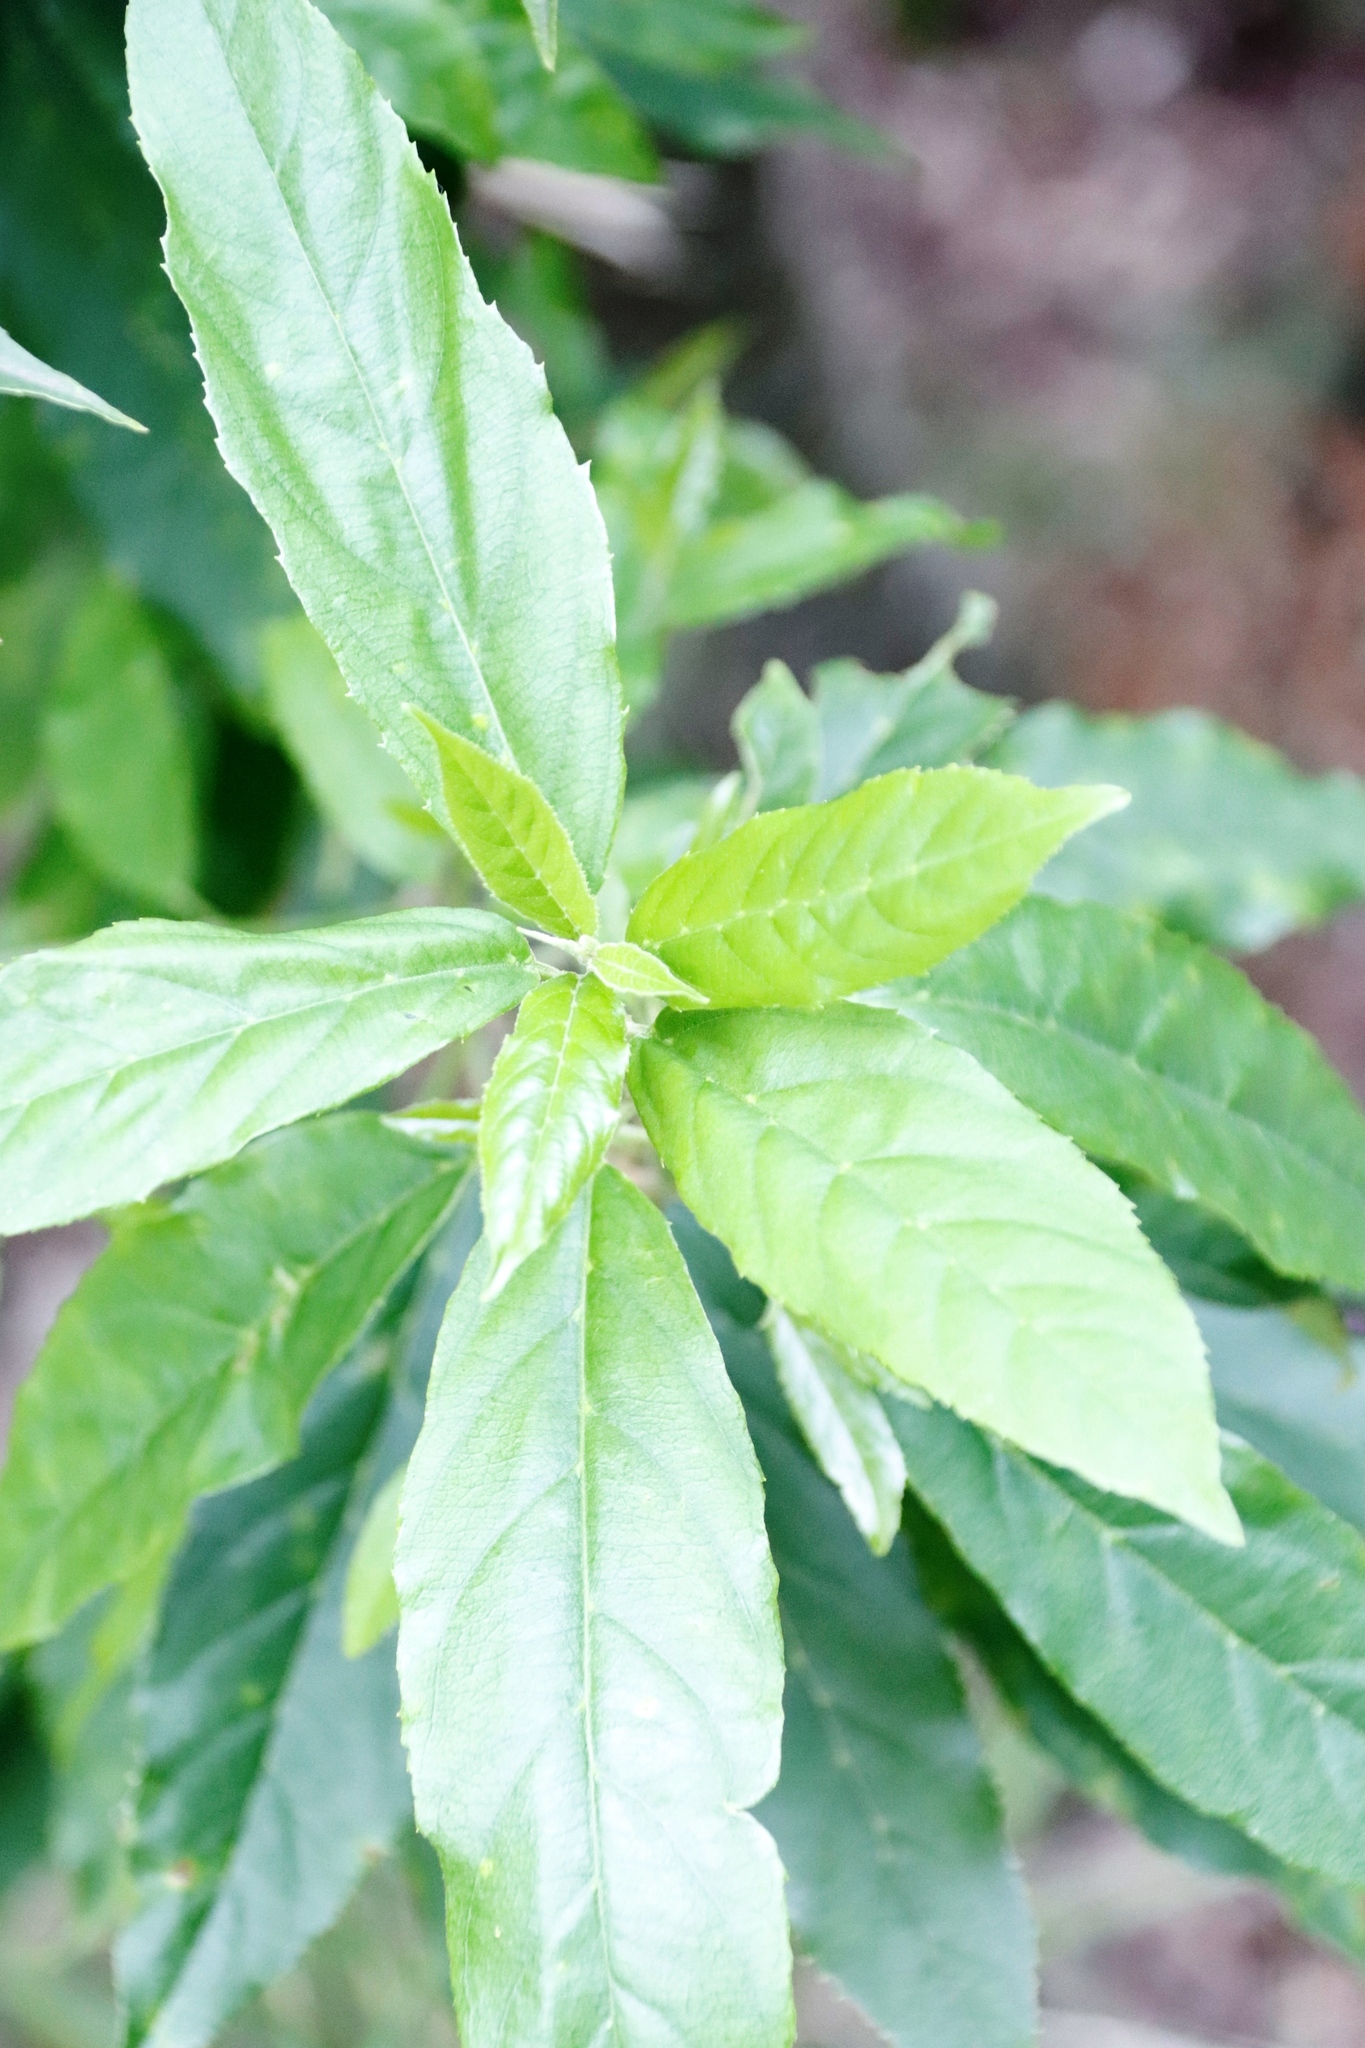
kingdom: Plantae
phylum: Tracheophyta
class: Magnoliopsida
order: Malpighiales
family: Achariaceae
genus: Kiggelaria
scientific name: Kiggelaria africana
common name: Wild peach
